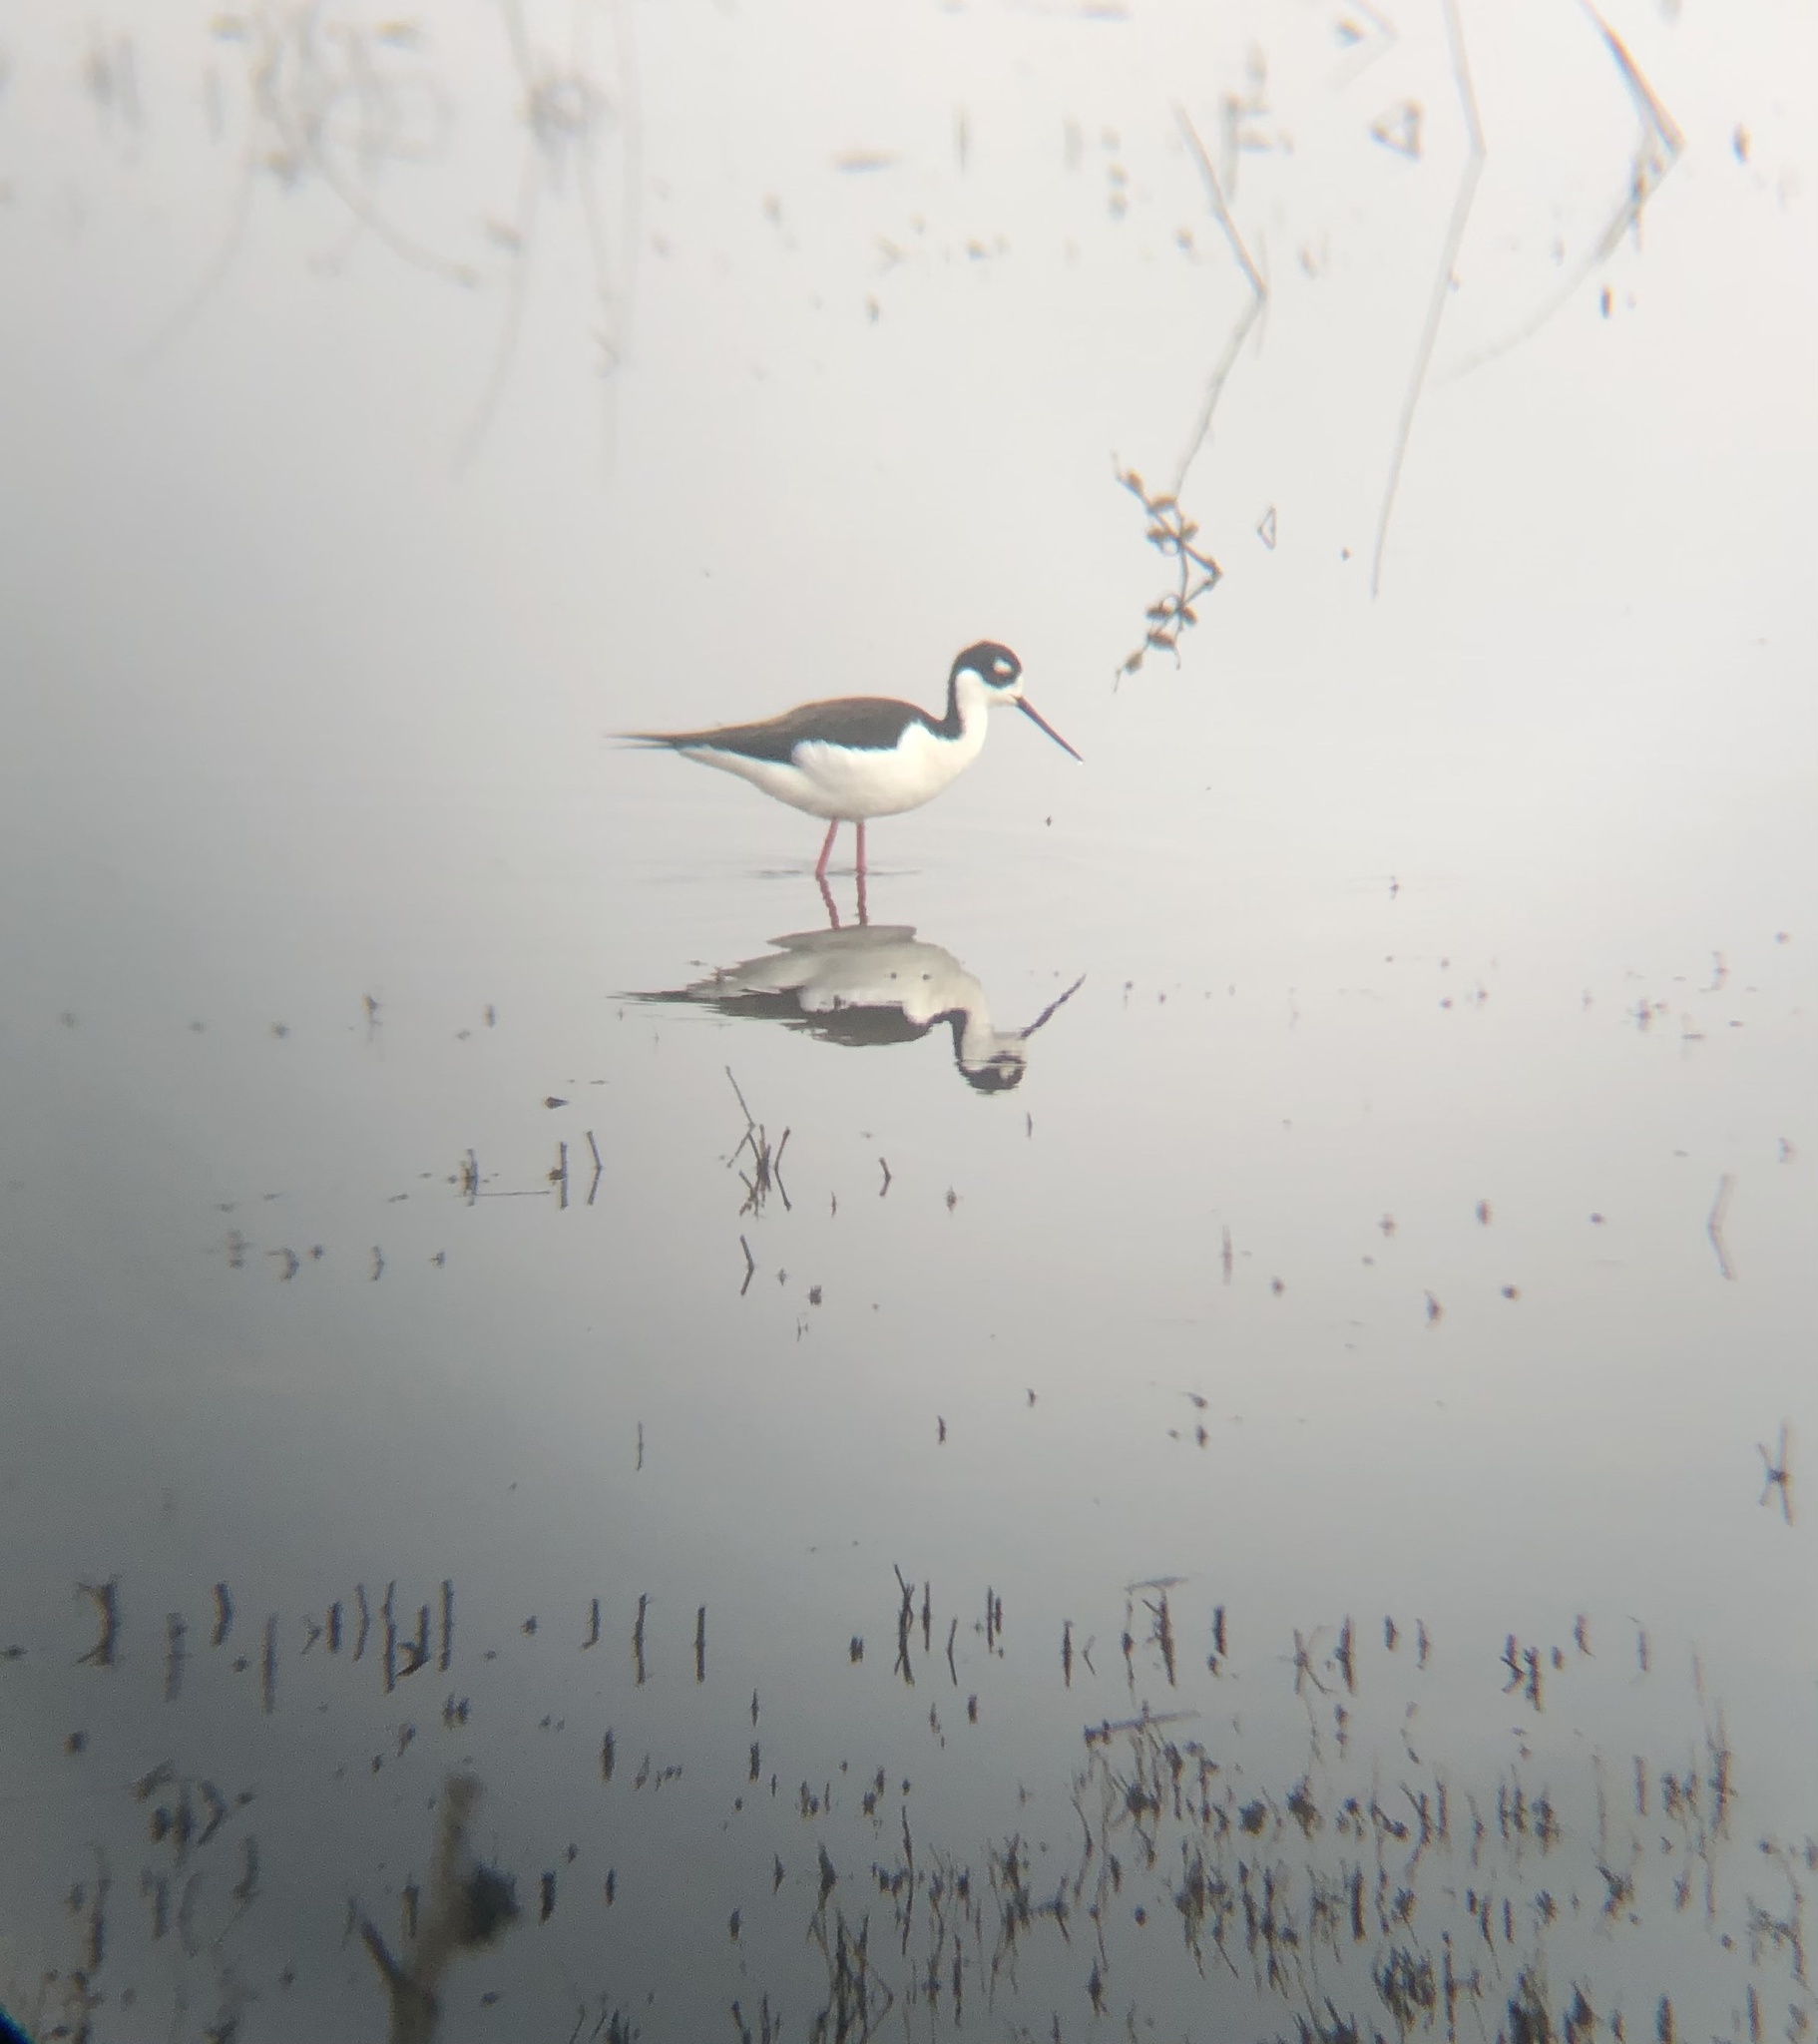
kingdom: Animalia
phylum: Chordata
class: Aves
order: Charadriiformes
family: Recurvirostridae
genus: Himantopus
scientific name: Himantopus mexicanus
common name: Black-necked stilt
